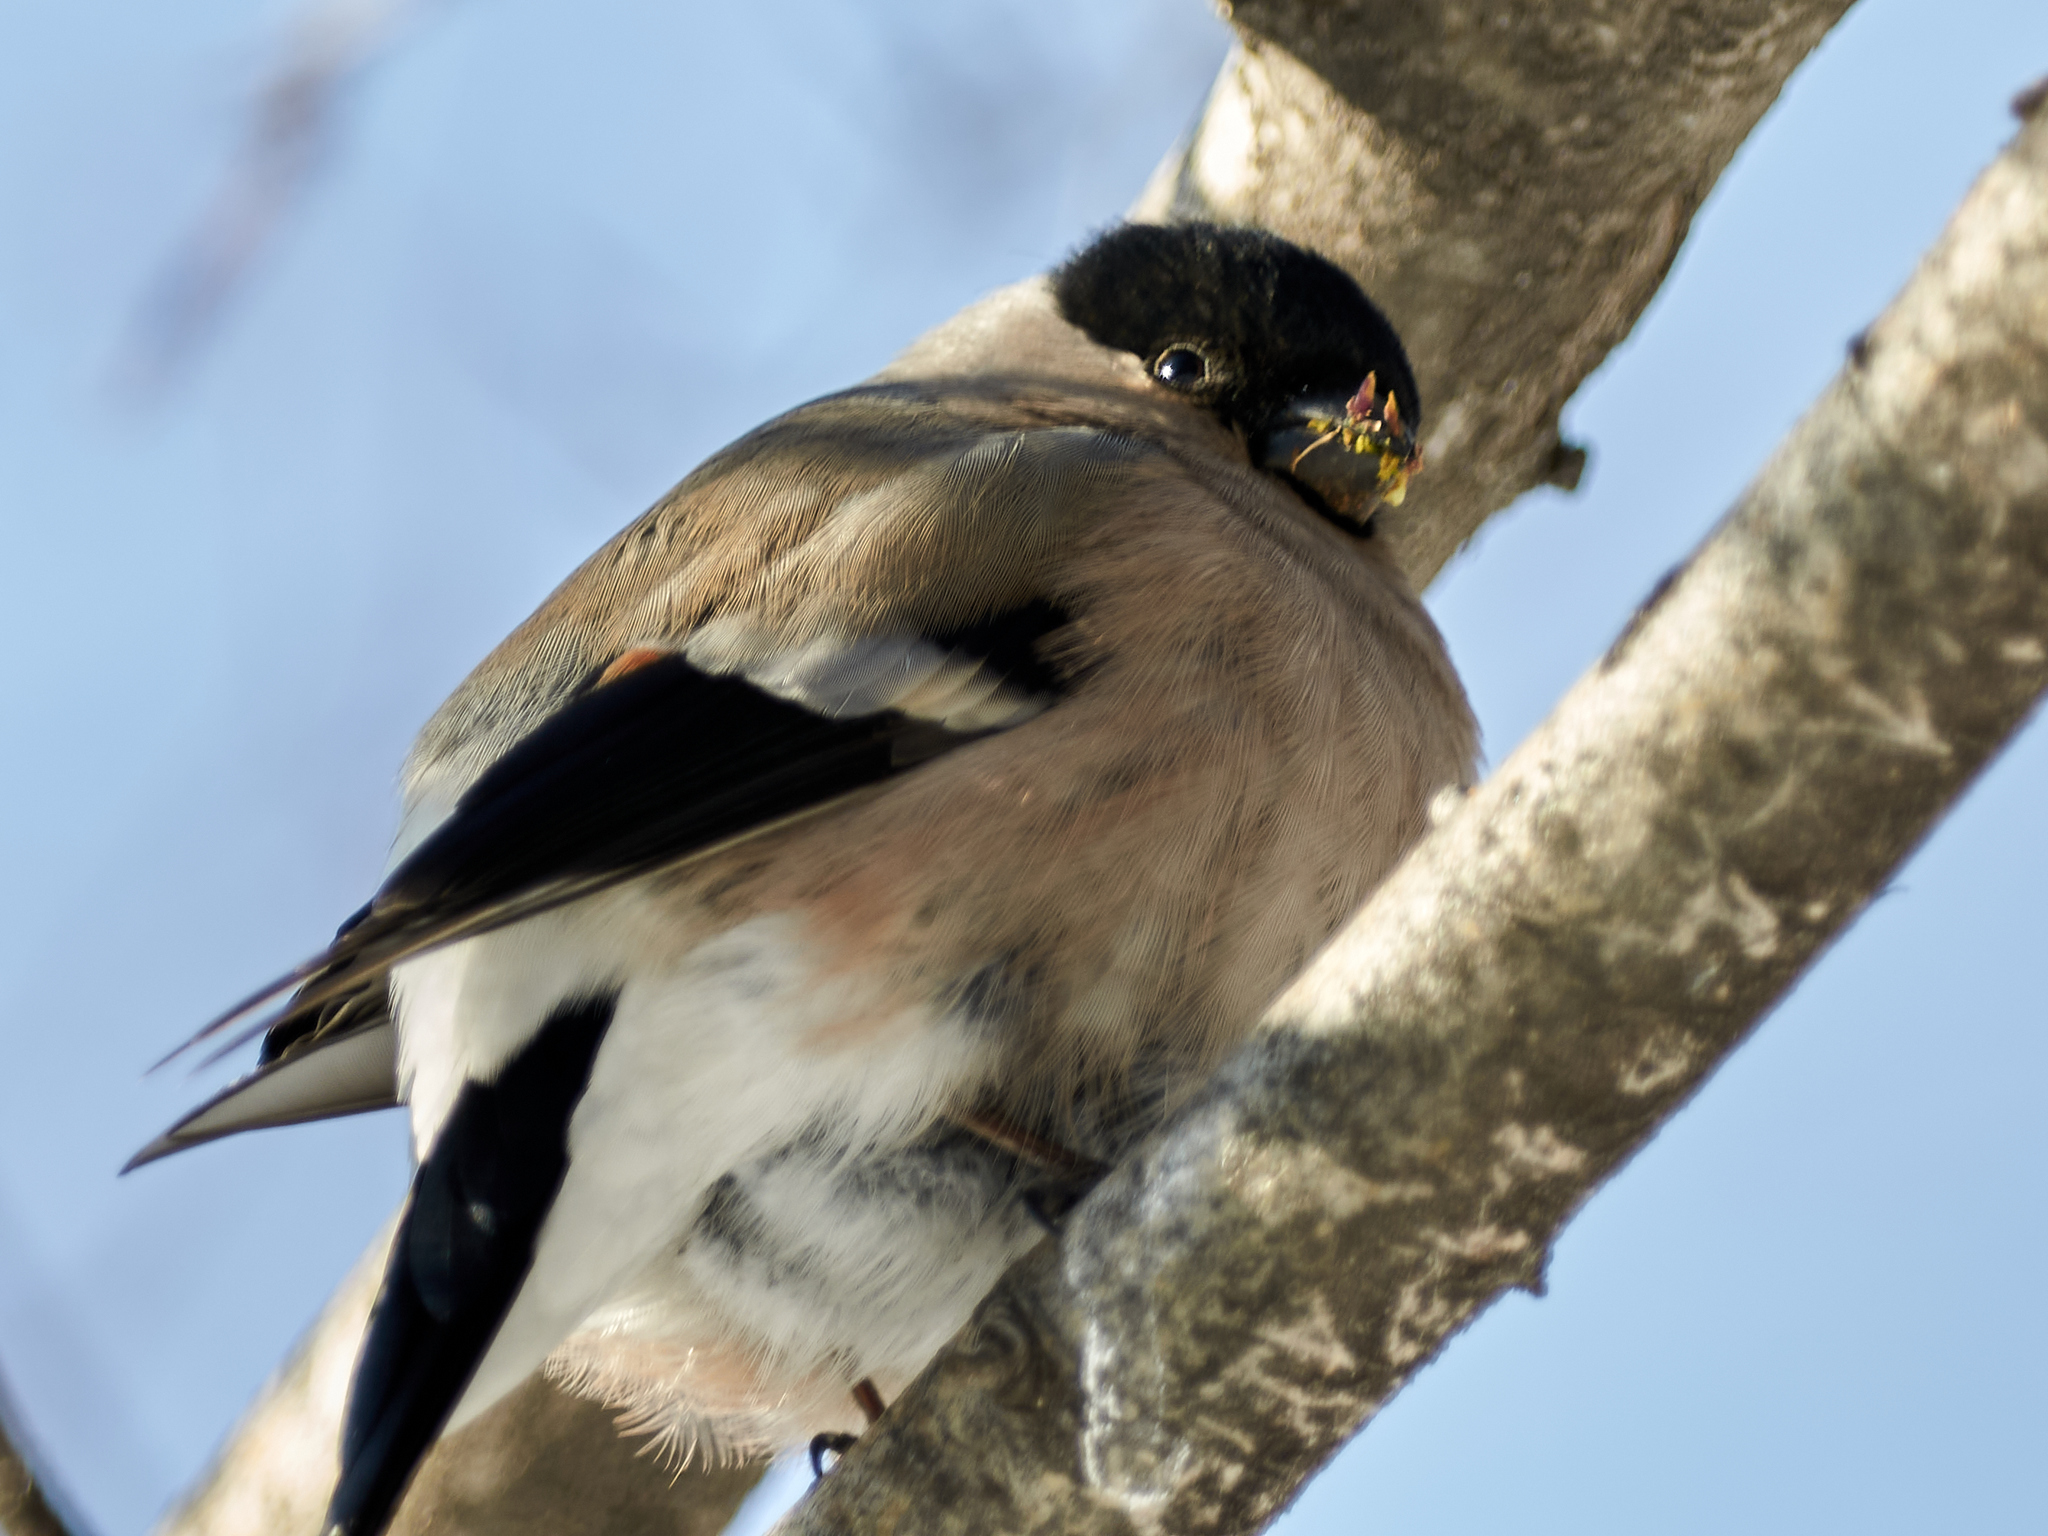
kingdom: Animalia
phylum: Chordata
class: Aves
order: Passeriformes
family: Fringillidae
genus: Pyrrhula
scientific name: Pyrrhula pyrrhula
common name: Eurasian bullfinch
